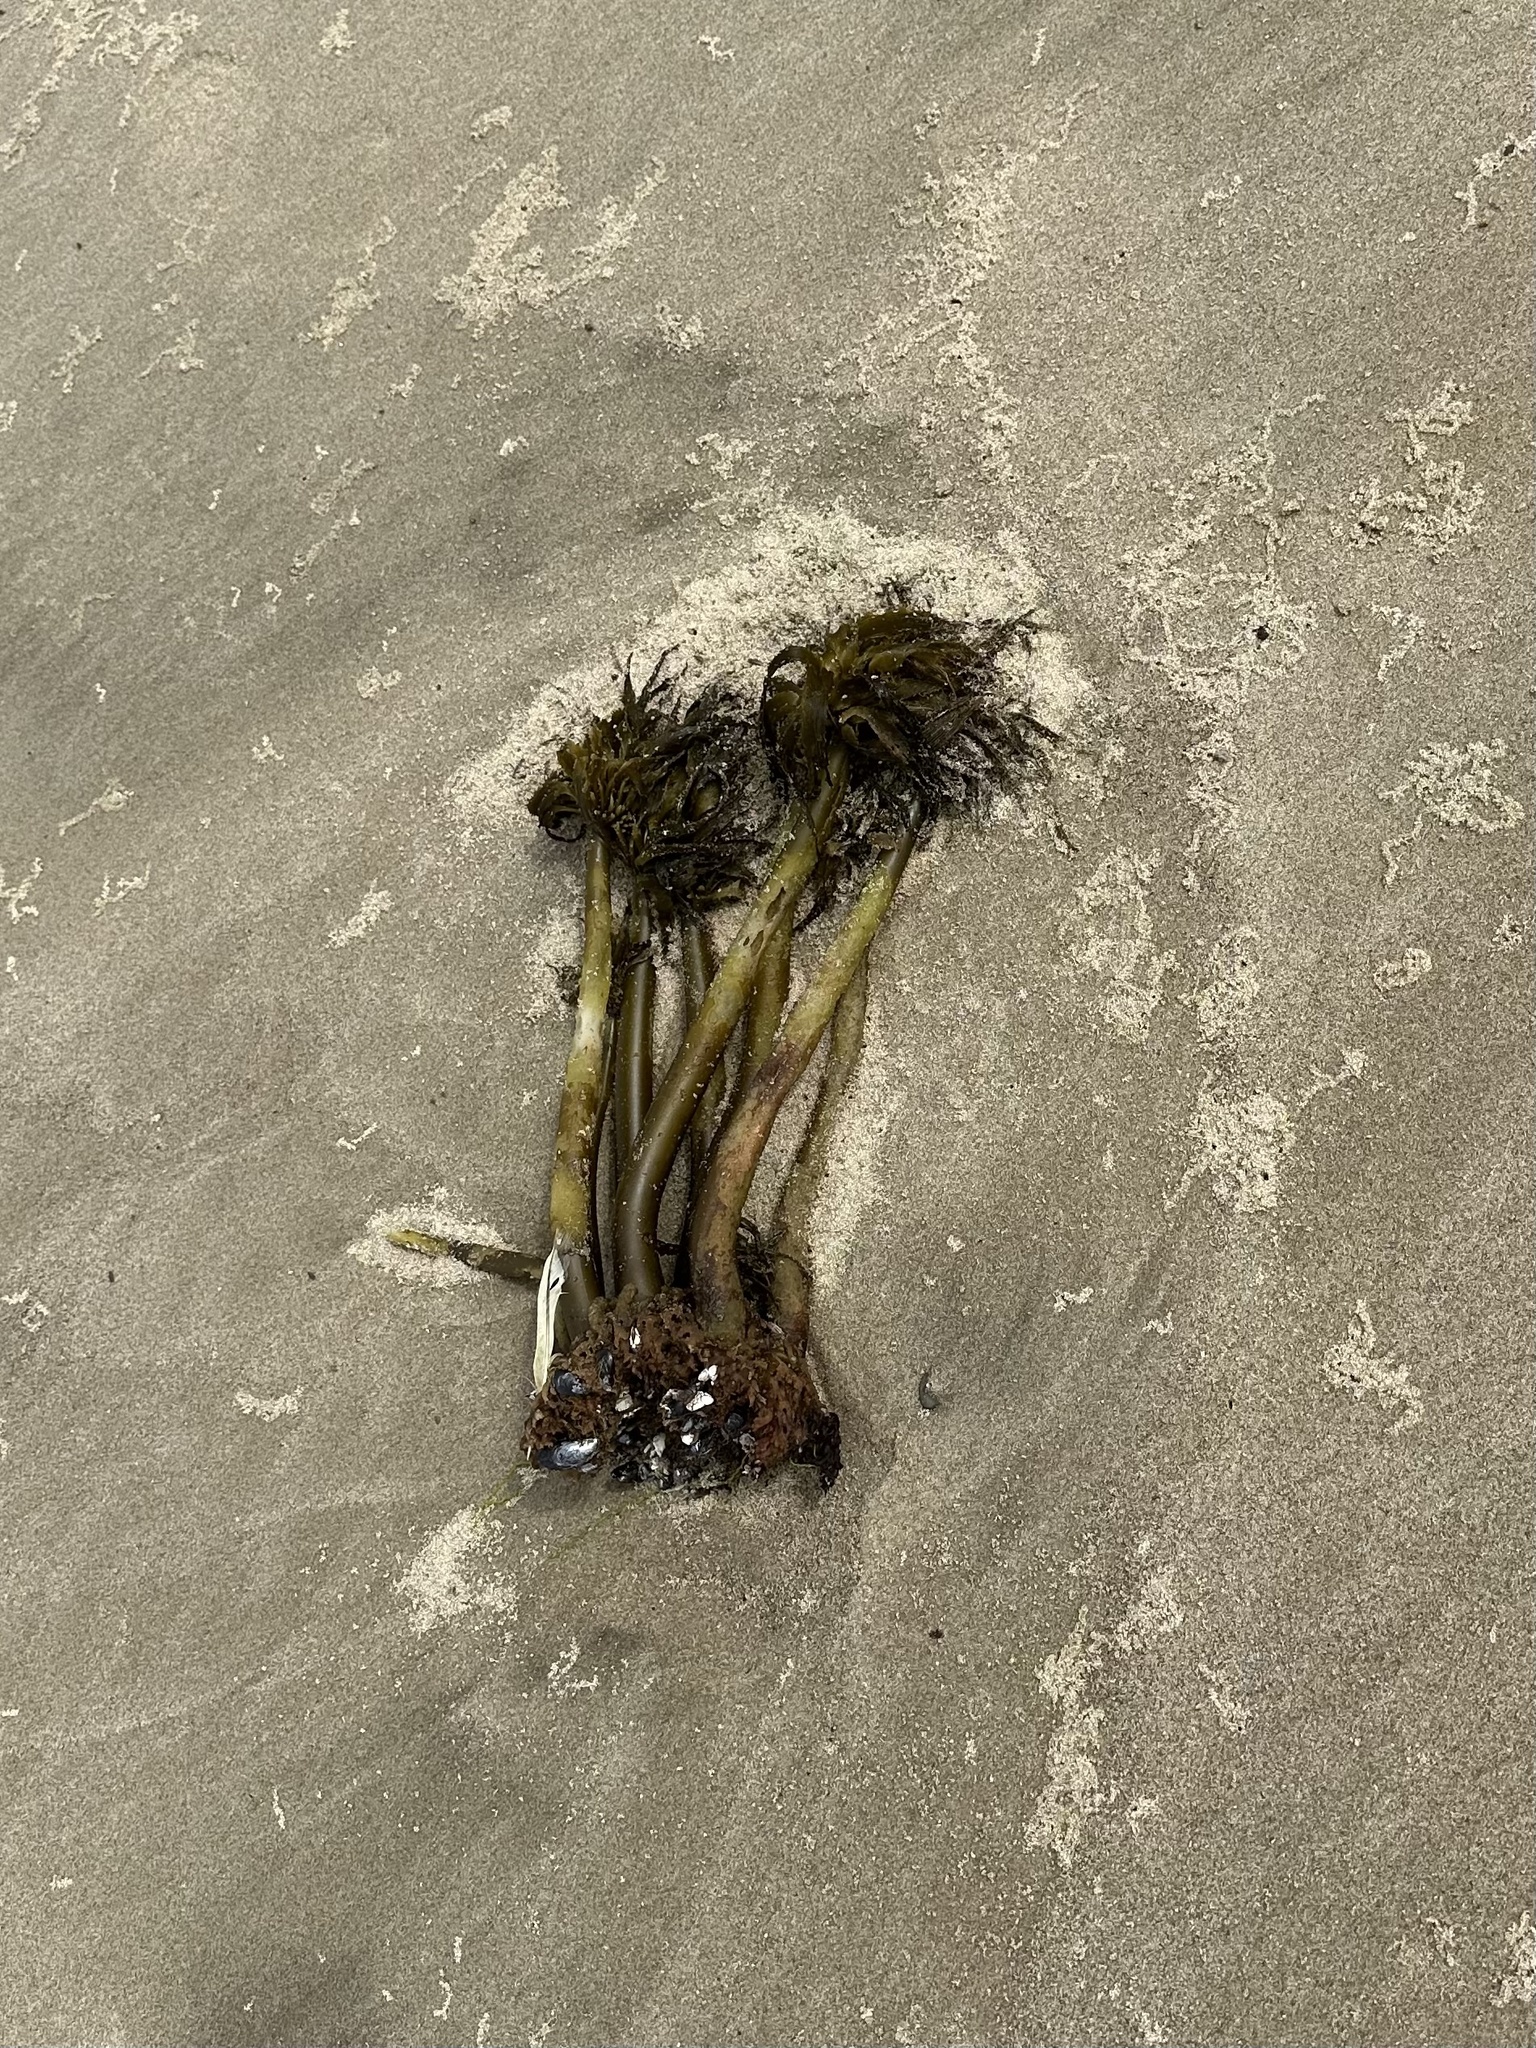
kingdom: Chromista
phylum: Ochrophyta
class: Phaeophyceae
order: Laminariales
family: Laminariaceae
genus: Postelsia
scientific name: Postelsia palmiformis
